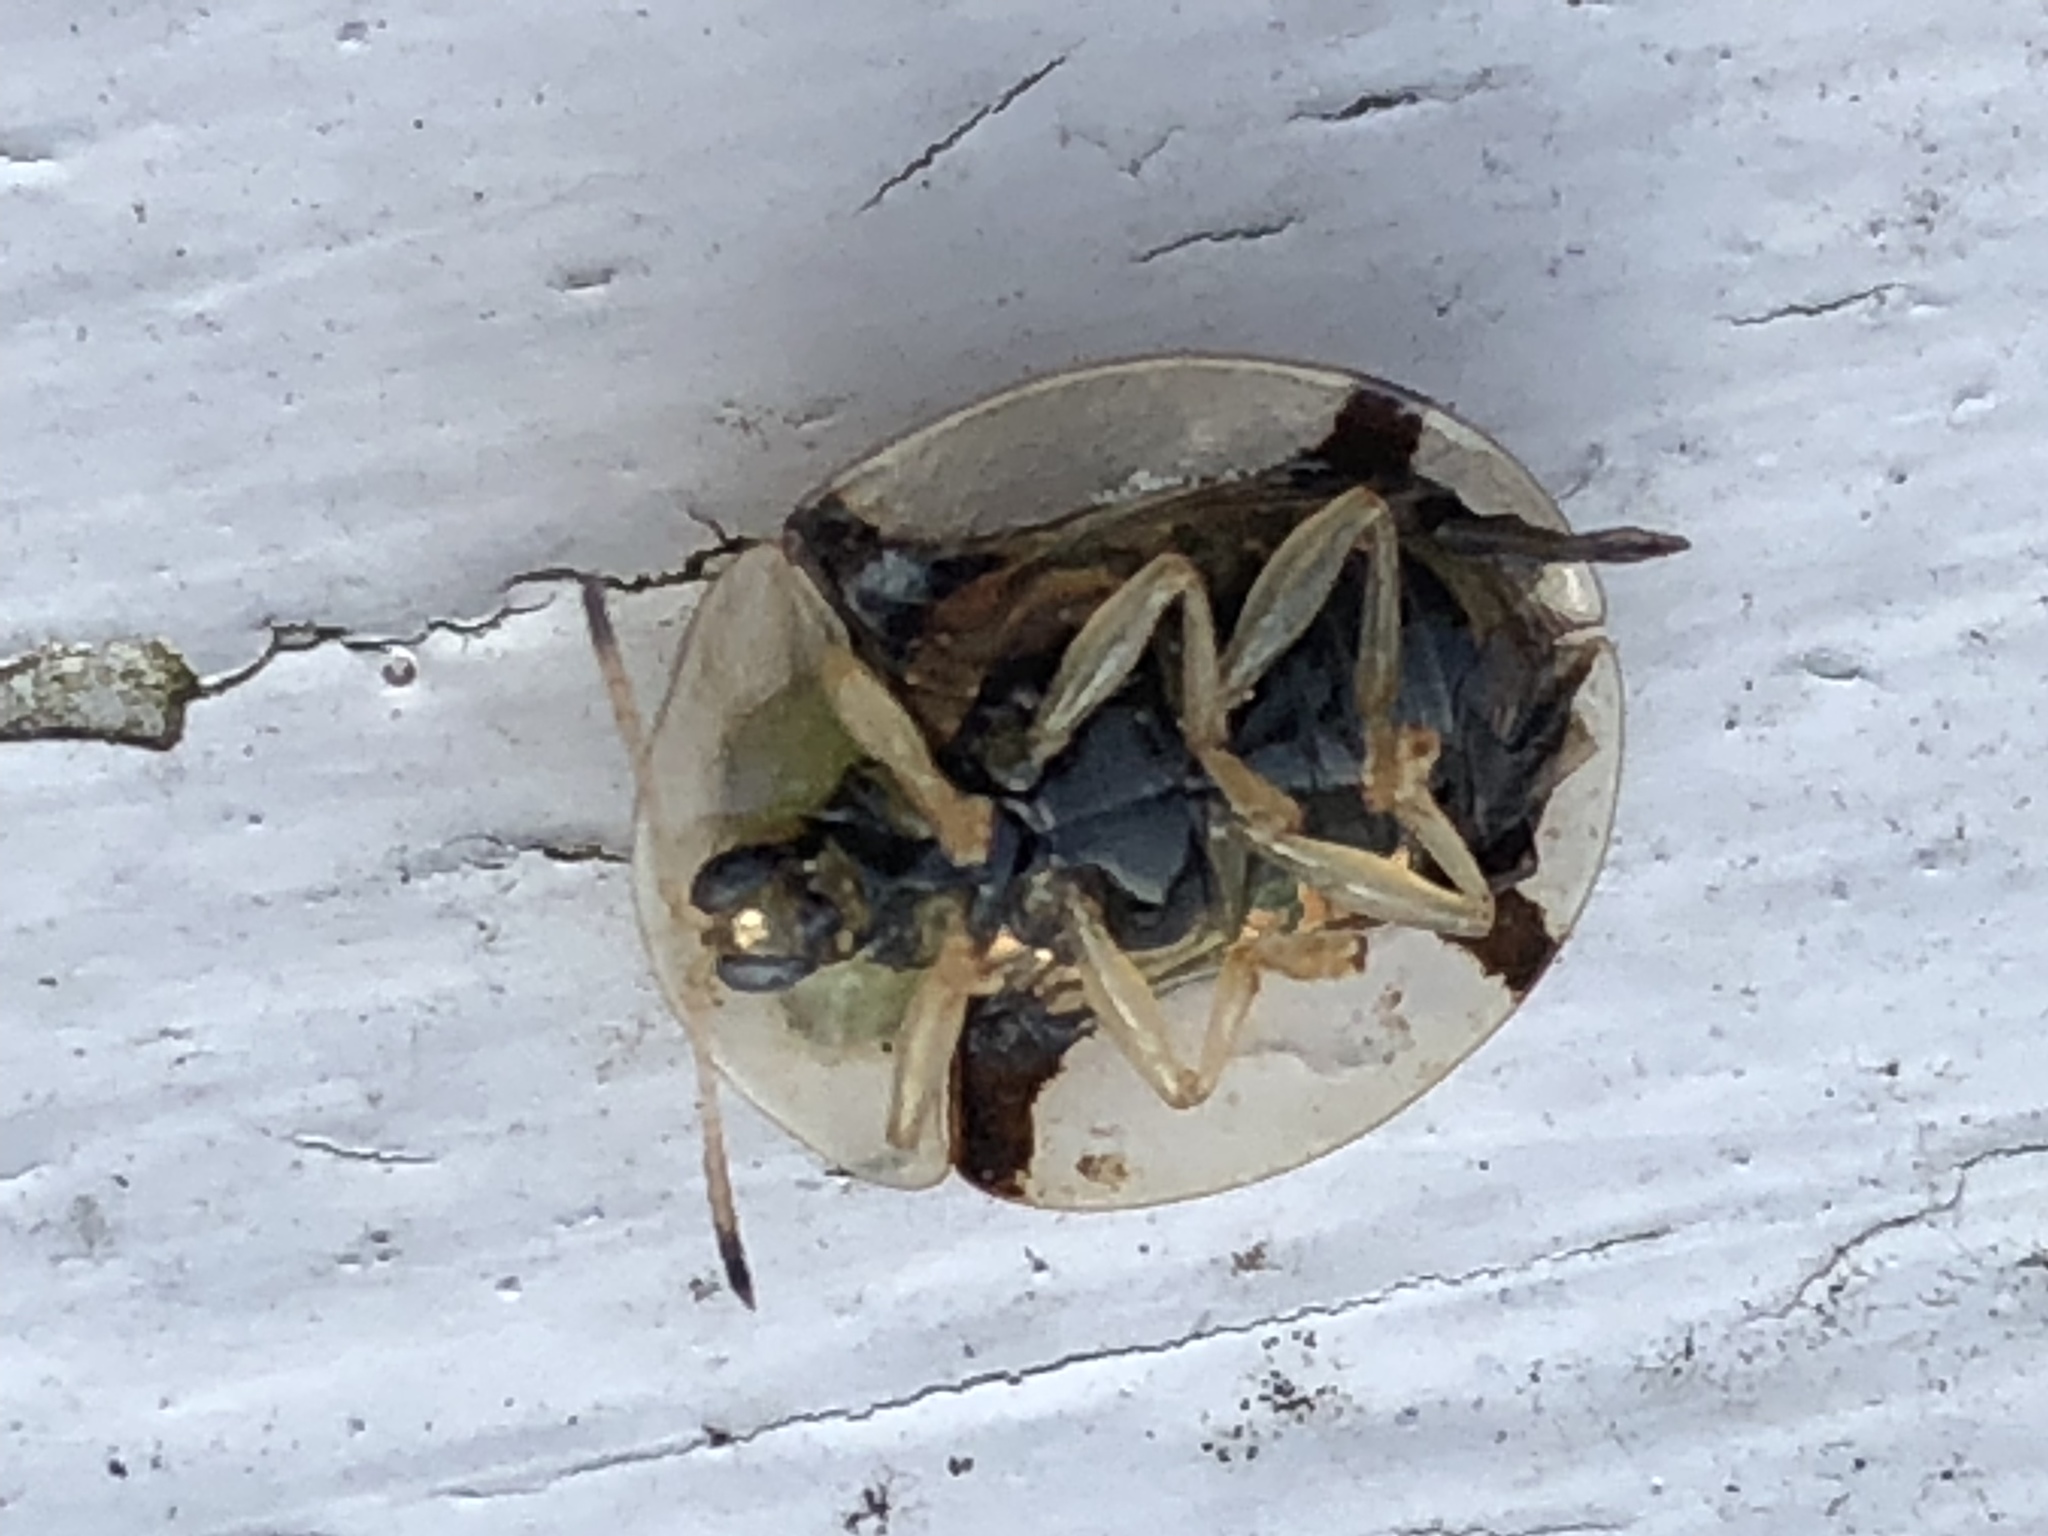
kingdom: Animalia
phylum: Arthropoda
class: Insecta
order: Coleoptera
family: Chrysomelidae
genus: Aspidimorpha
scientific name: Aspidimorpha quadriremis
